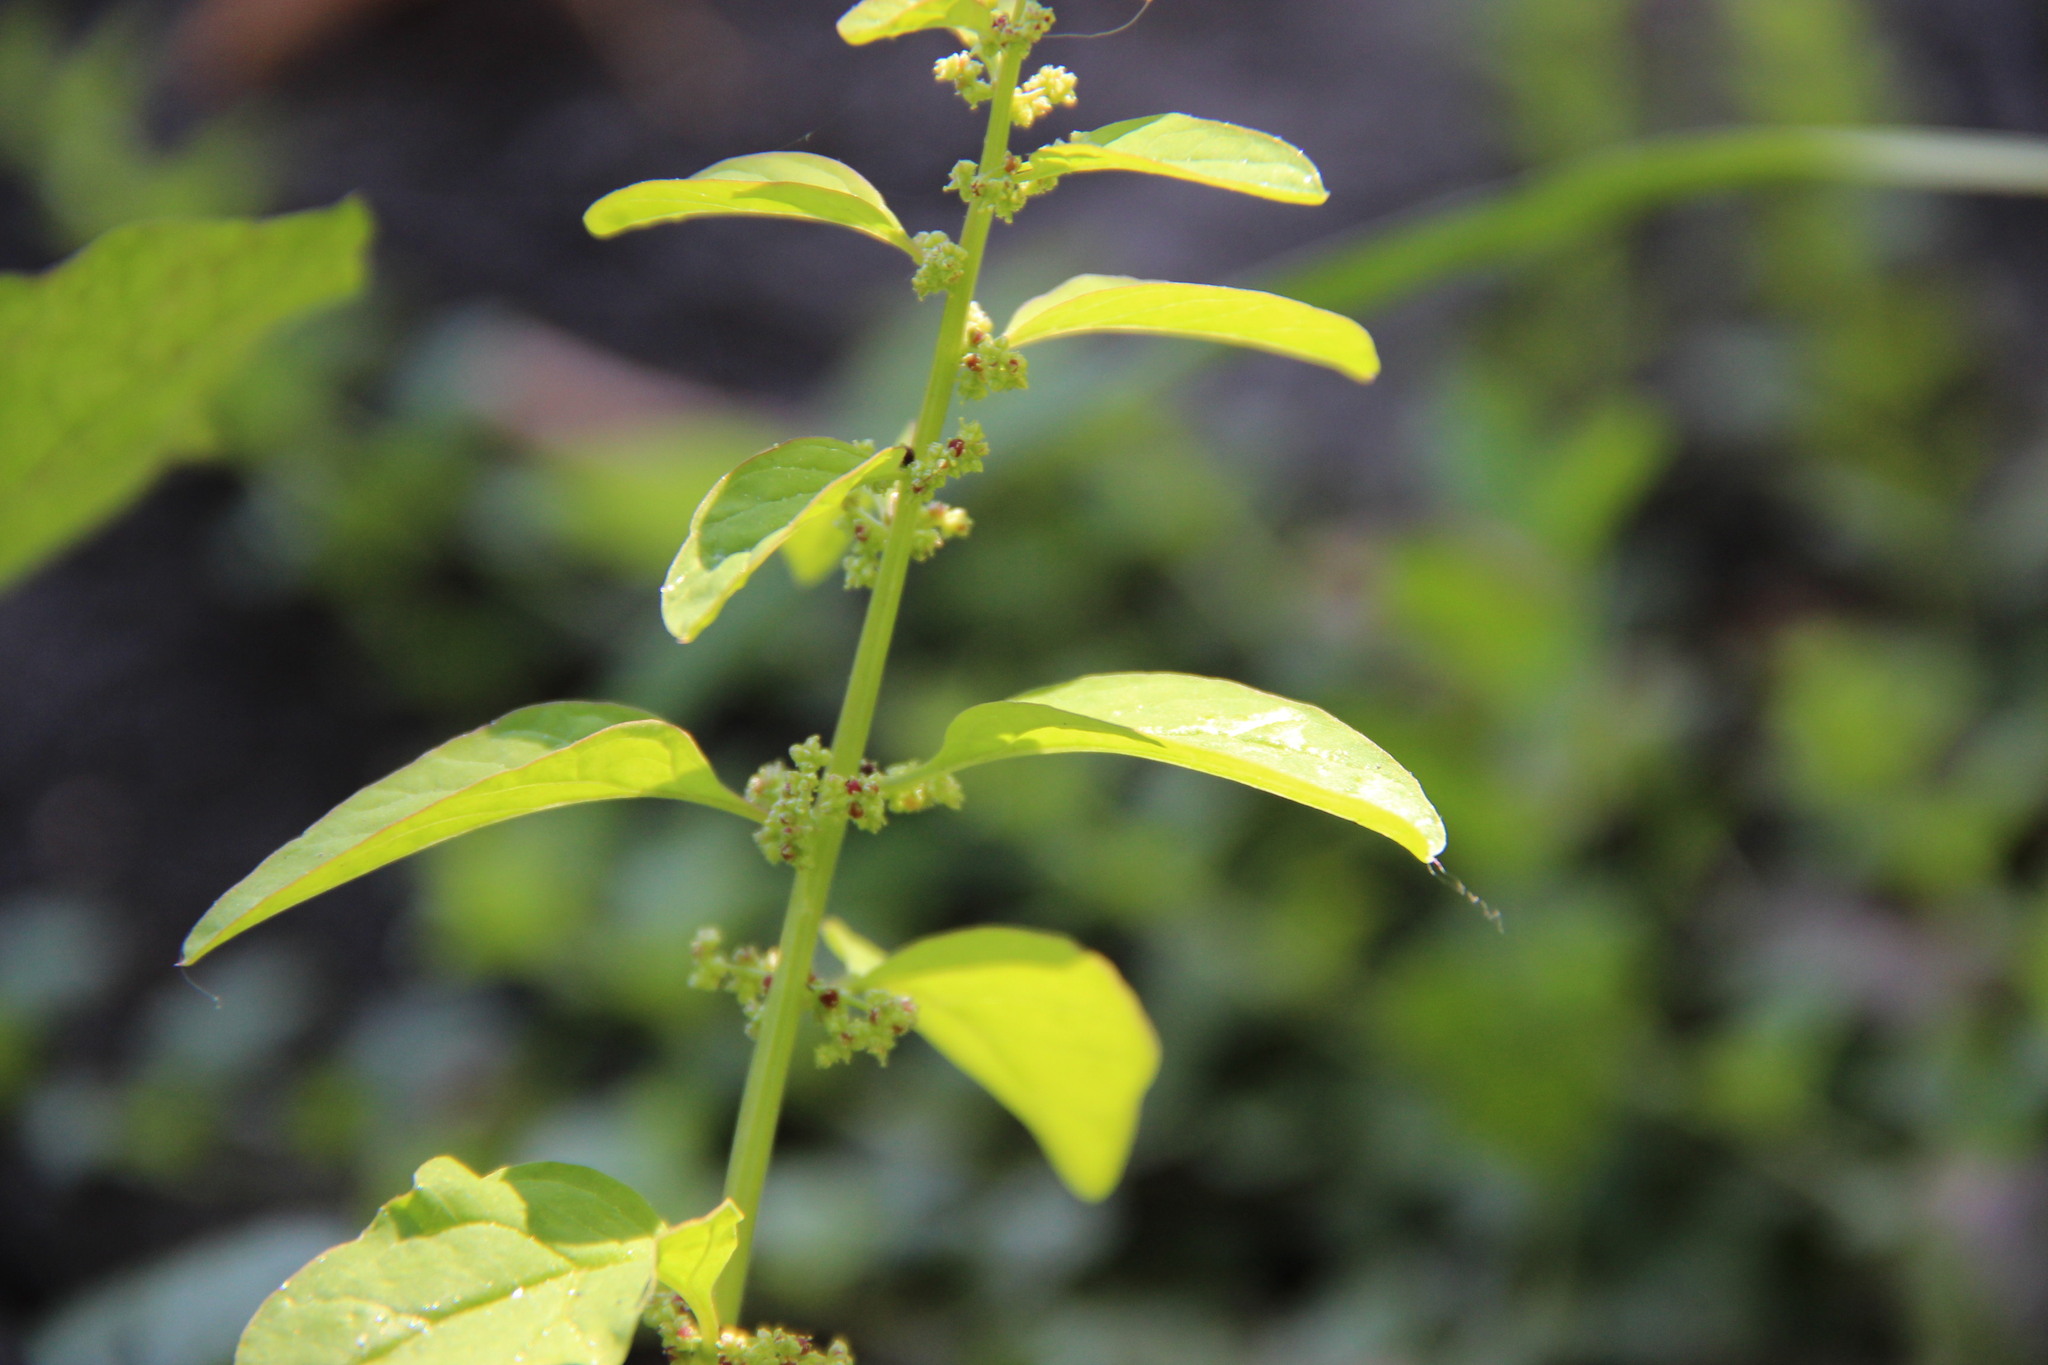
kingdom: Plantae
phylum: Tracheophyta
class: Magnoliopsida
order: Caryophyllales
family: Amaranthaceae
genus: Lipandra
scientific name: Lipandra polysperma
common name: Many-seed goosefoot
